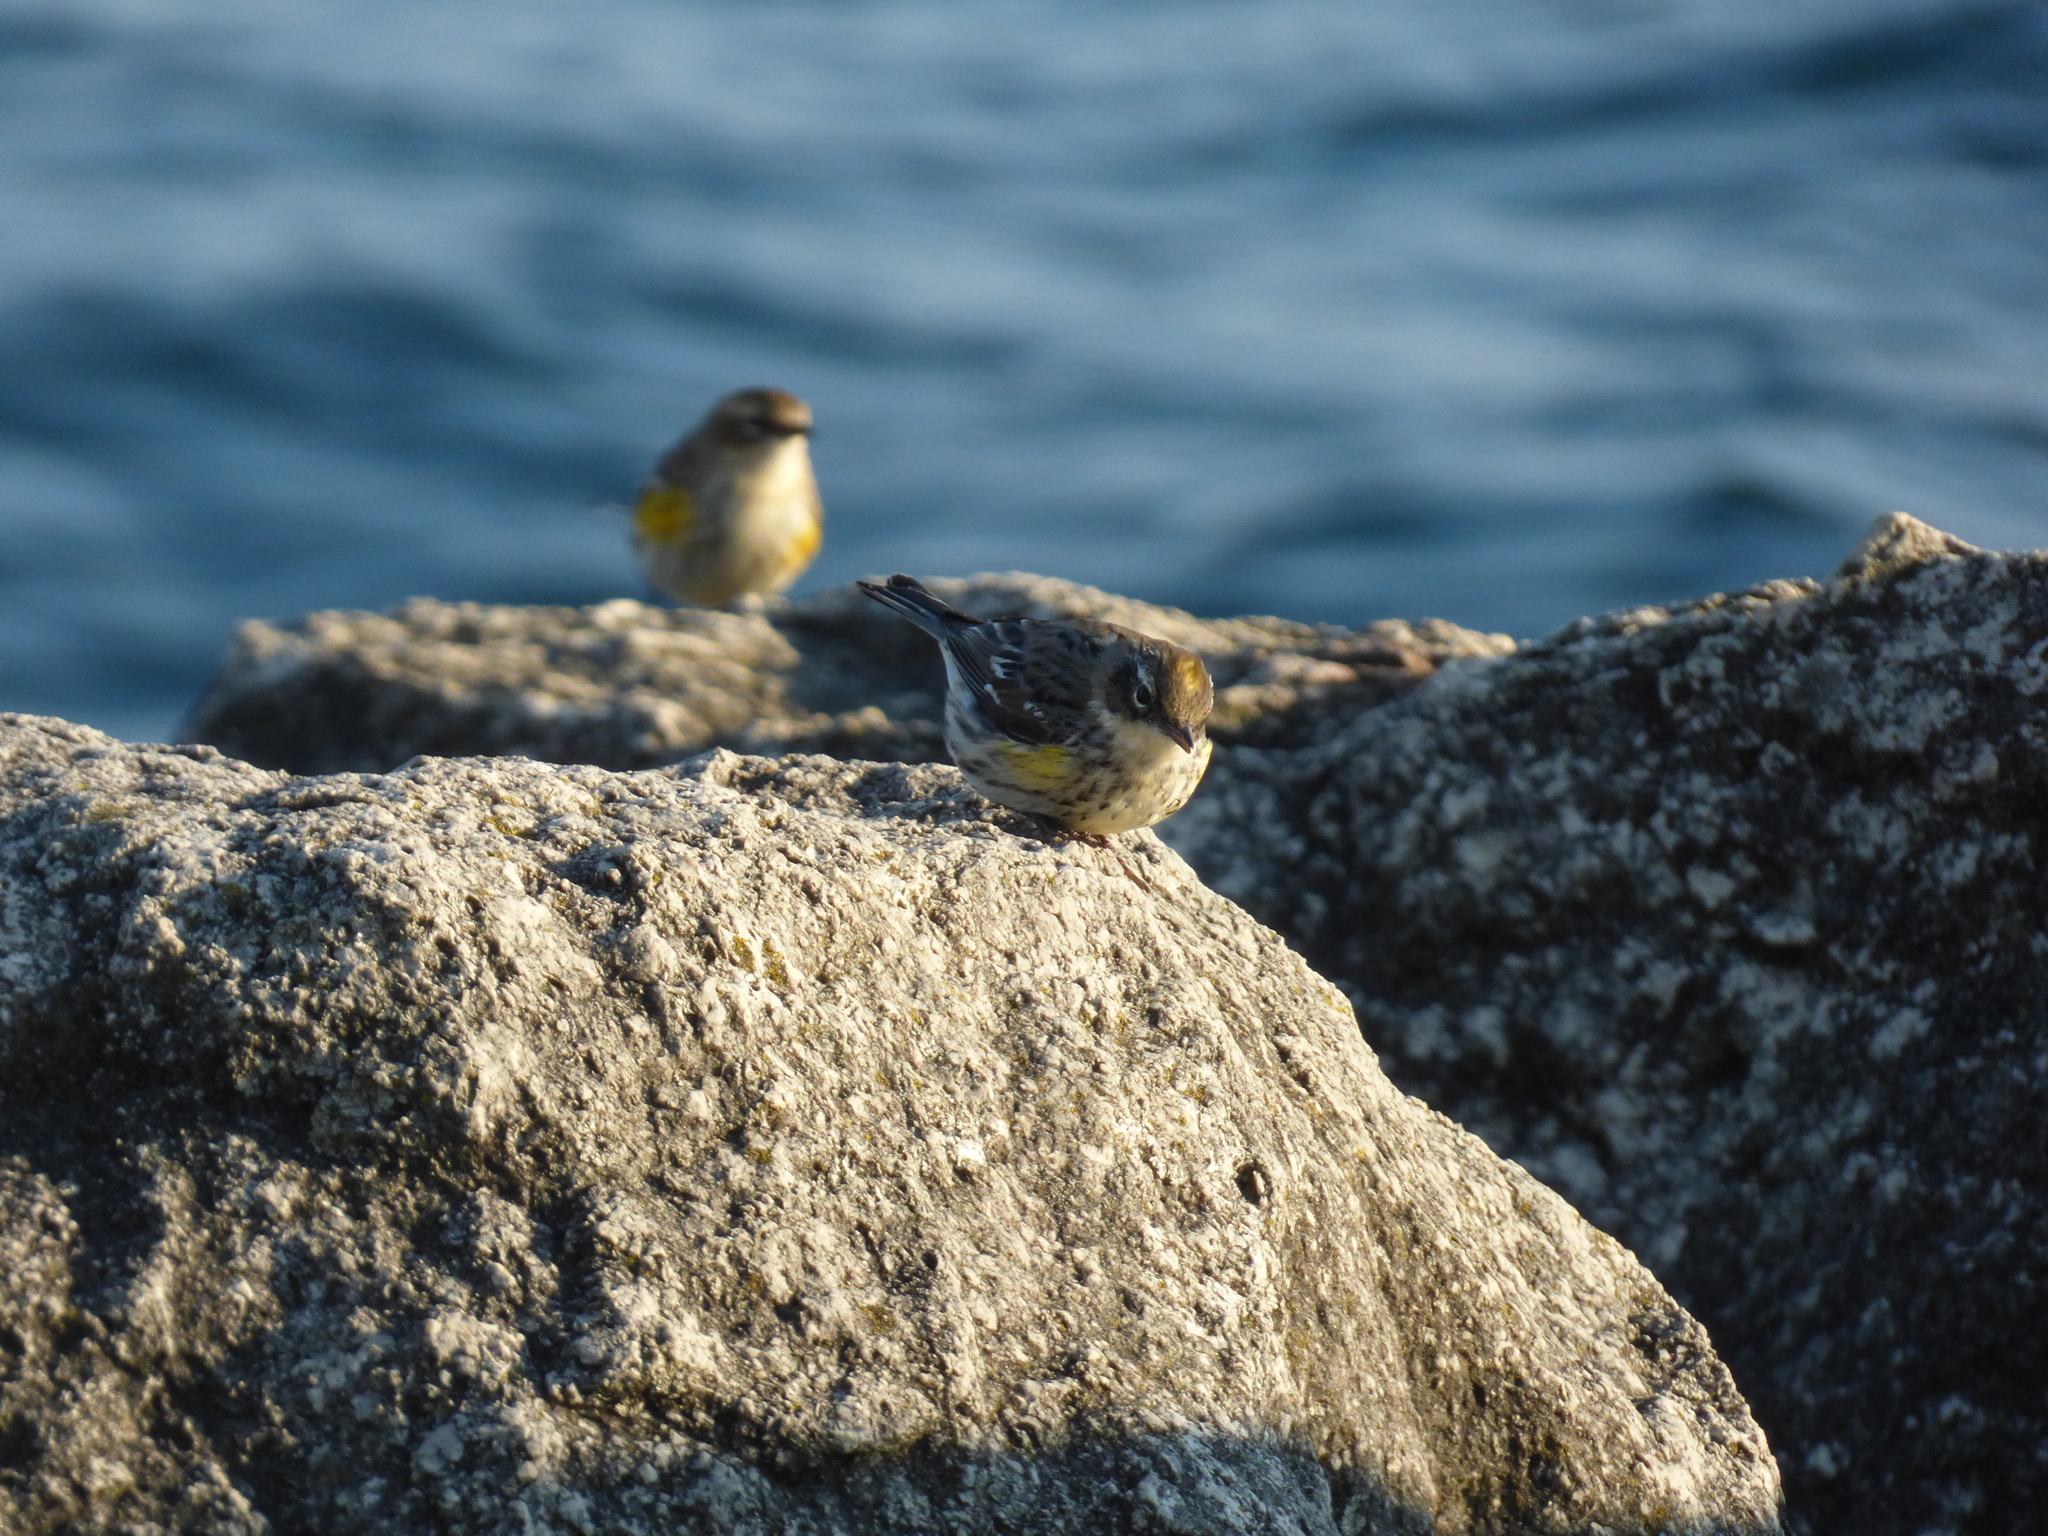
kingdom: Animalia
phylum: Chordata
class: Aves
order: Passeriformes
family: Parulidae
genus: Setophaga
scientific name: Setophaga coronata
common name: Myrtle warbler
